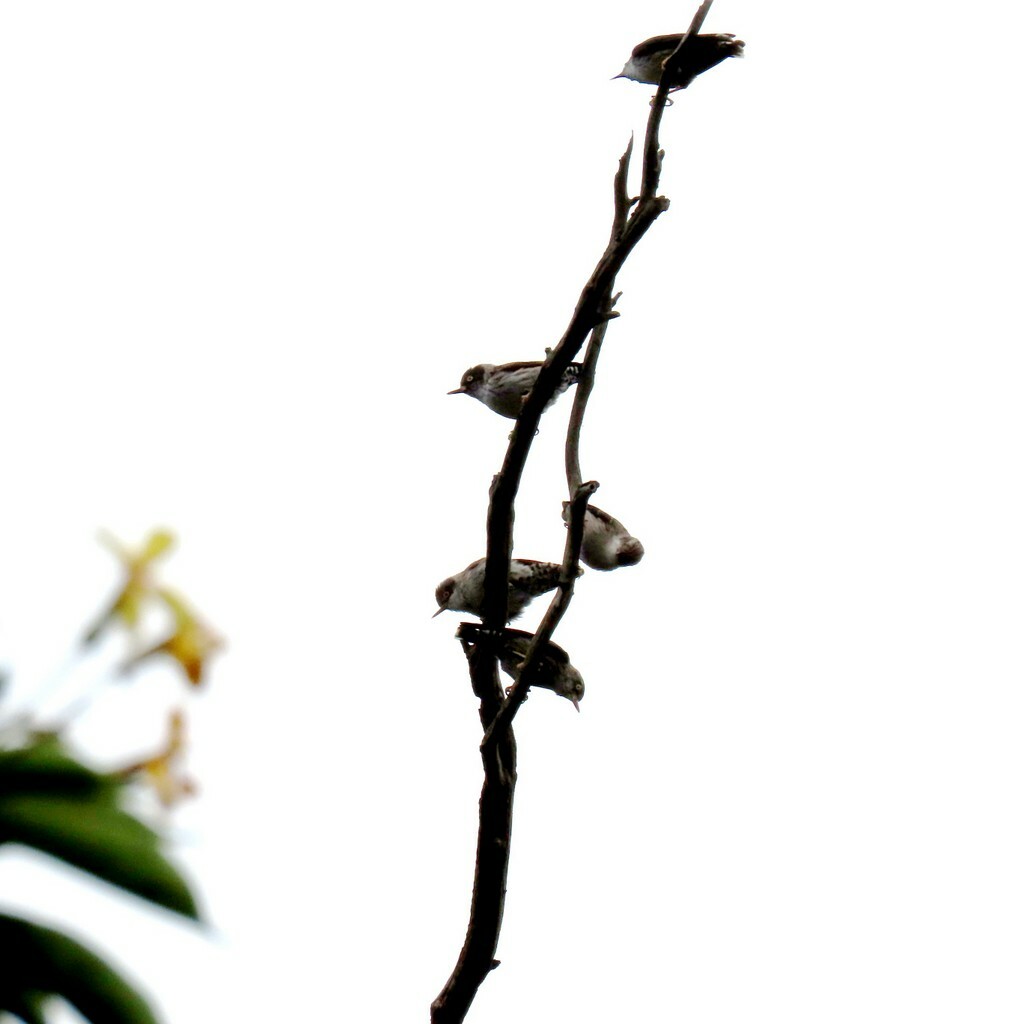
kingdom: Animalia
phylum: Chordata
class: Aves
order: Passeriformes
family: Neosittidae
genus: Daphoenositta
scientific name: Daphoenositta chrysoptera
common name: Varied sittella
